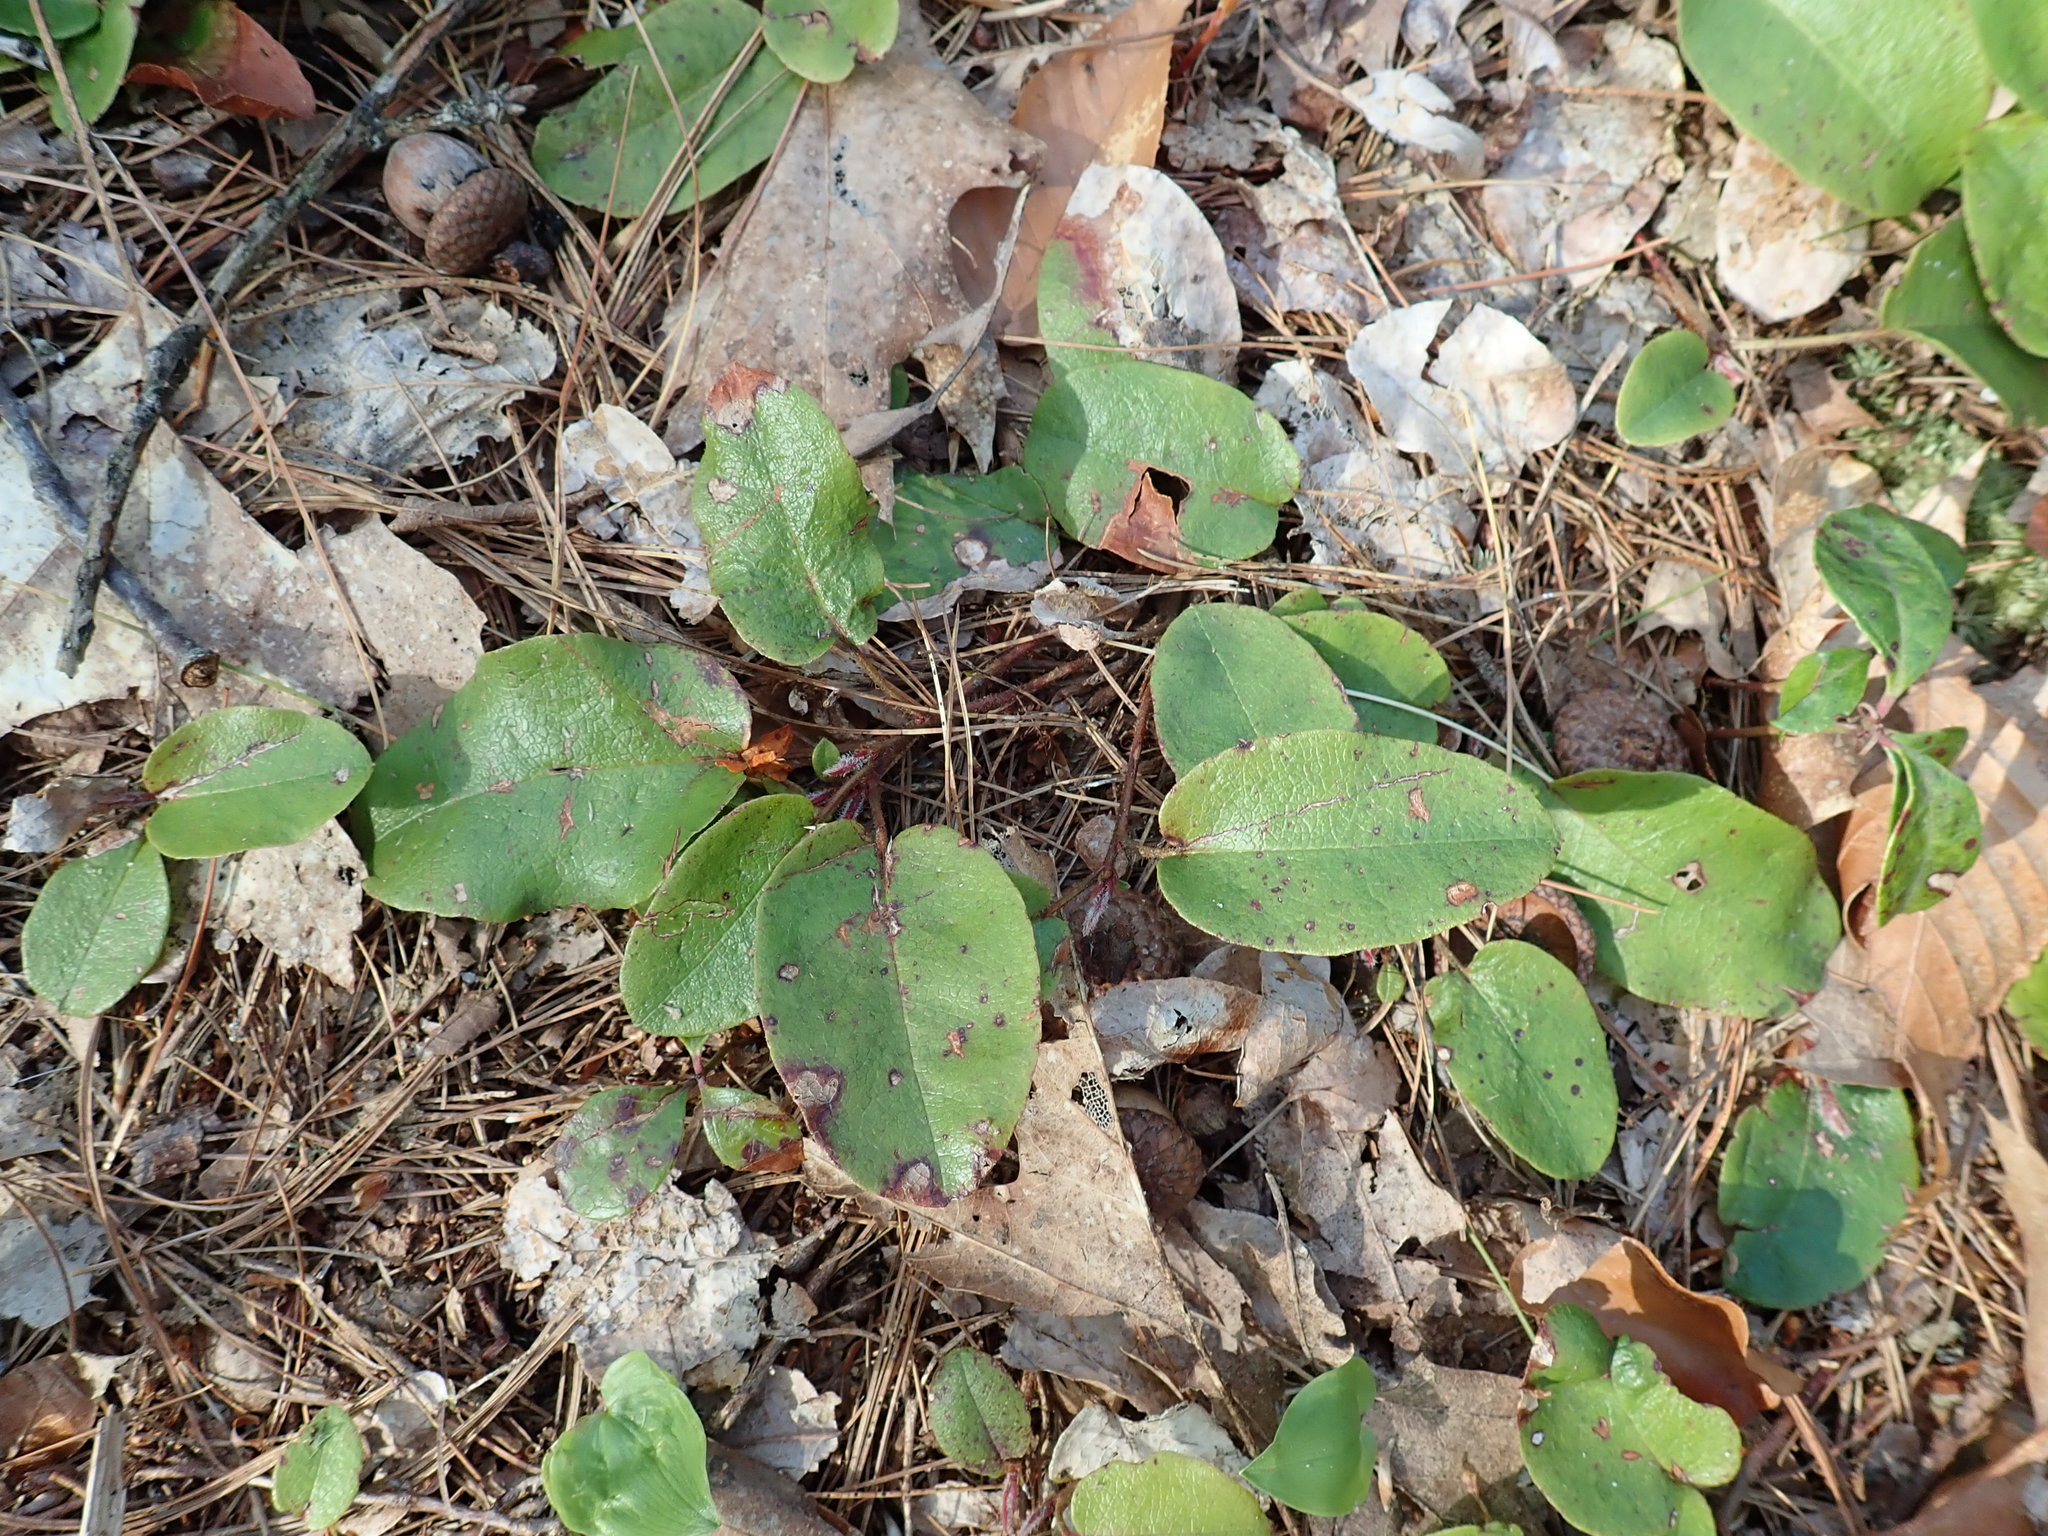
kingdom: Plantae
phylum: Tracheophyta
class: Magnoliopsida
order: Ericales
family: Ericaceae
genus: Epigaea
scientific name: Epigaea repens
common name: Gravelroot
